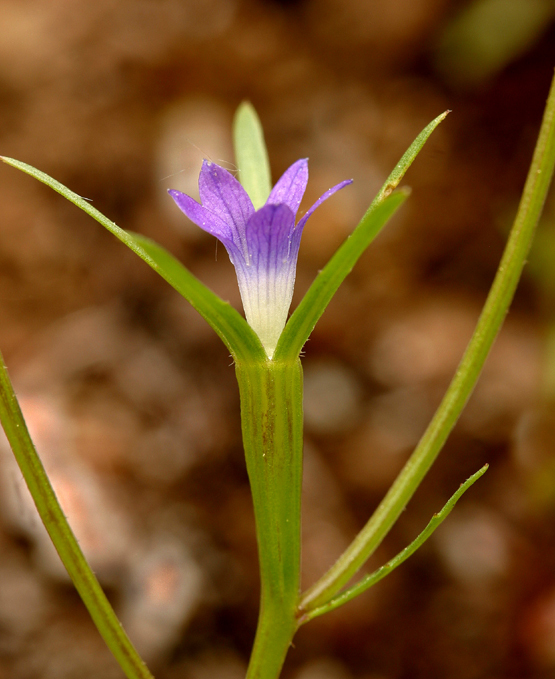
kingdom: Plantae
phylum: Tracheophyta
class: Magnoliopsida
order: Asterales
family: Campanulaceae
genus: Githopsis
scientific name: Githopsis specularioides
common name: Common bluecup
